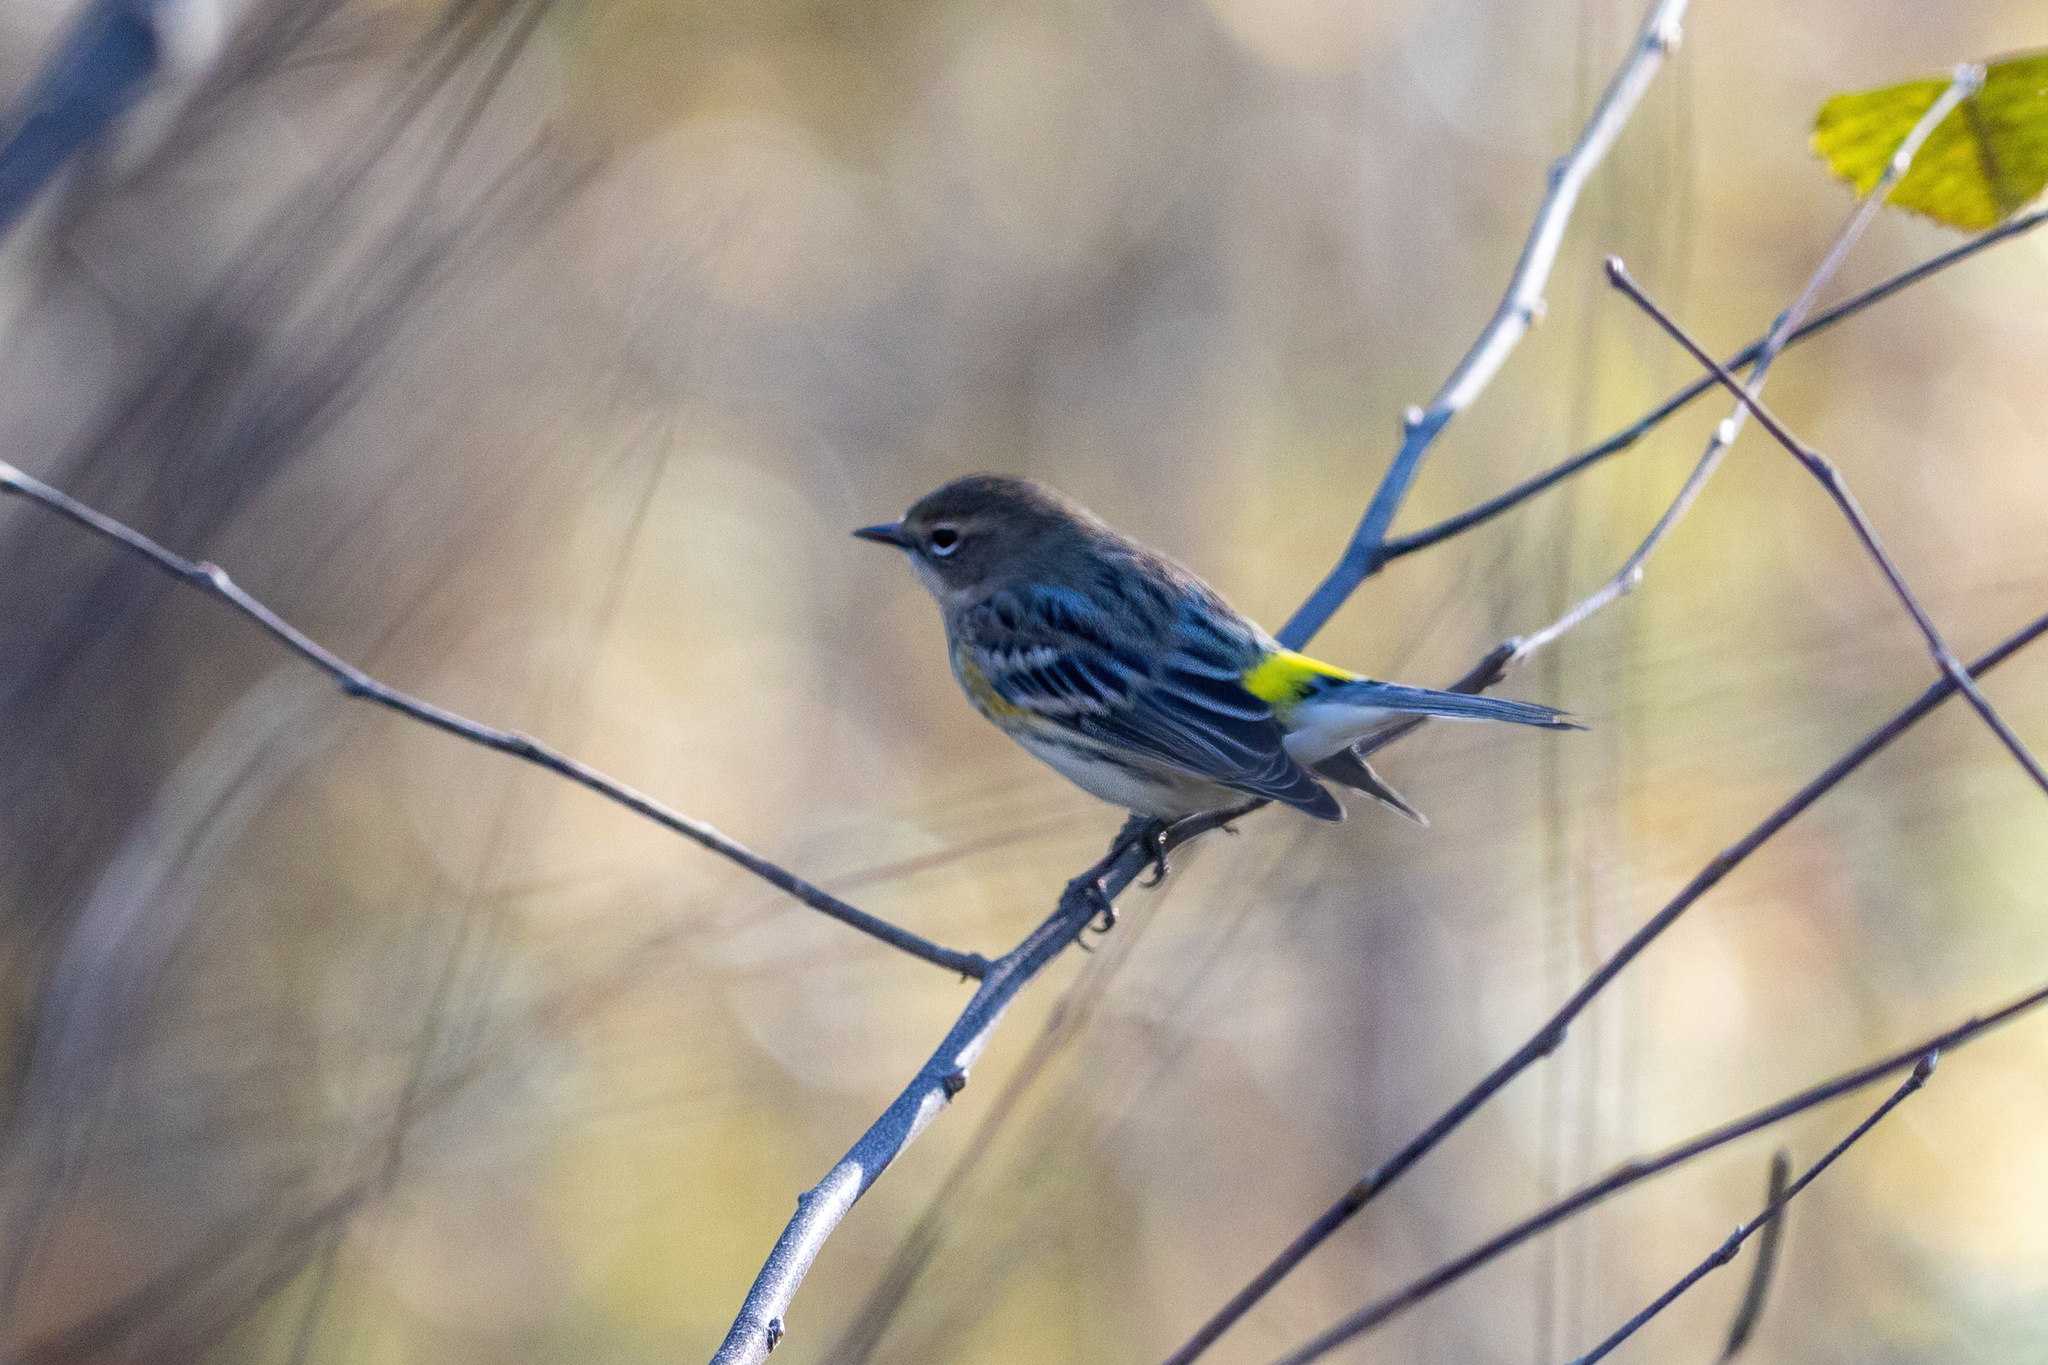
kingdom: Animalia
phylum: Chordata
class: Aves
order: Passeriformes
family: Parulidae
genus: Setophaga
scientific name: Setophaga coronata
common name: Myrtle warbler
